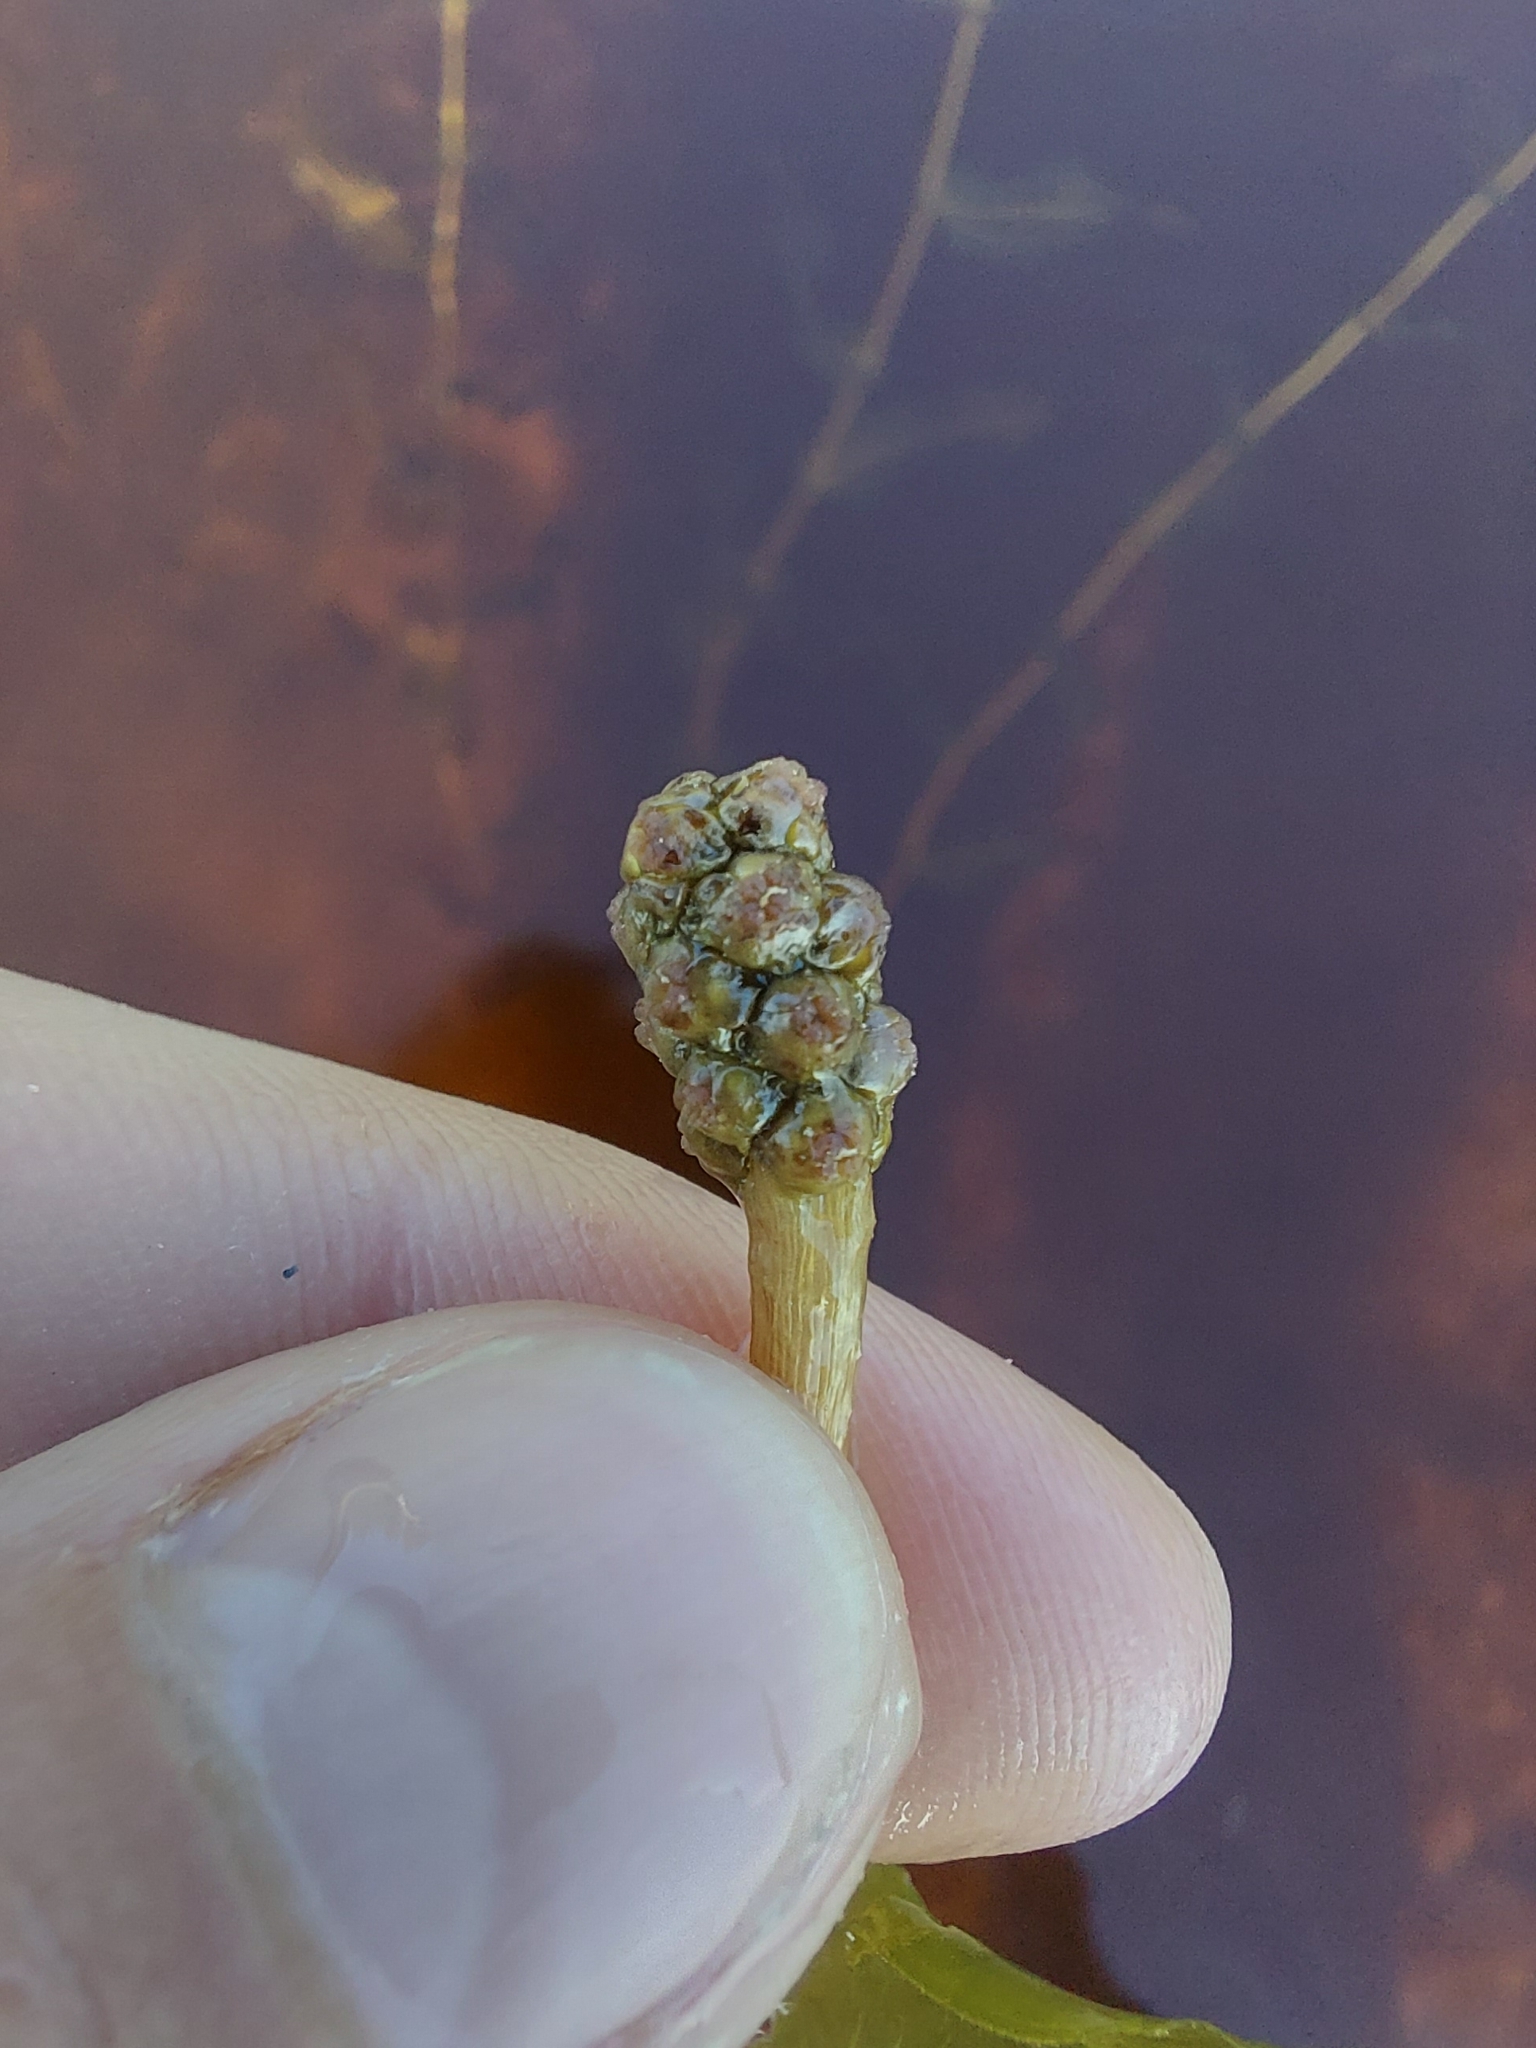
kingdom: Plantae
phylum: Tracheophyta
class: Liliopsida
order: Alismatales
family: Potamogetonaceae
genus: Potamogeton
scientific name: Potamogeton perfoliatus
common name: Perfoliate pondweed
